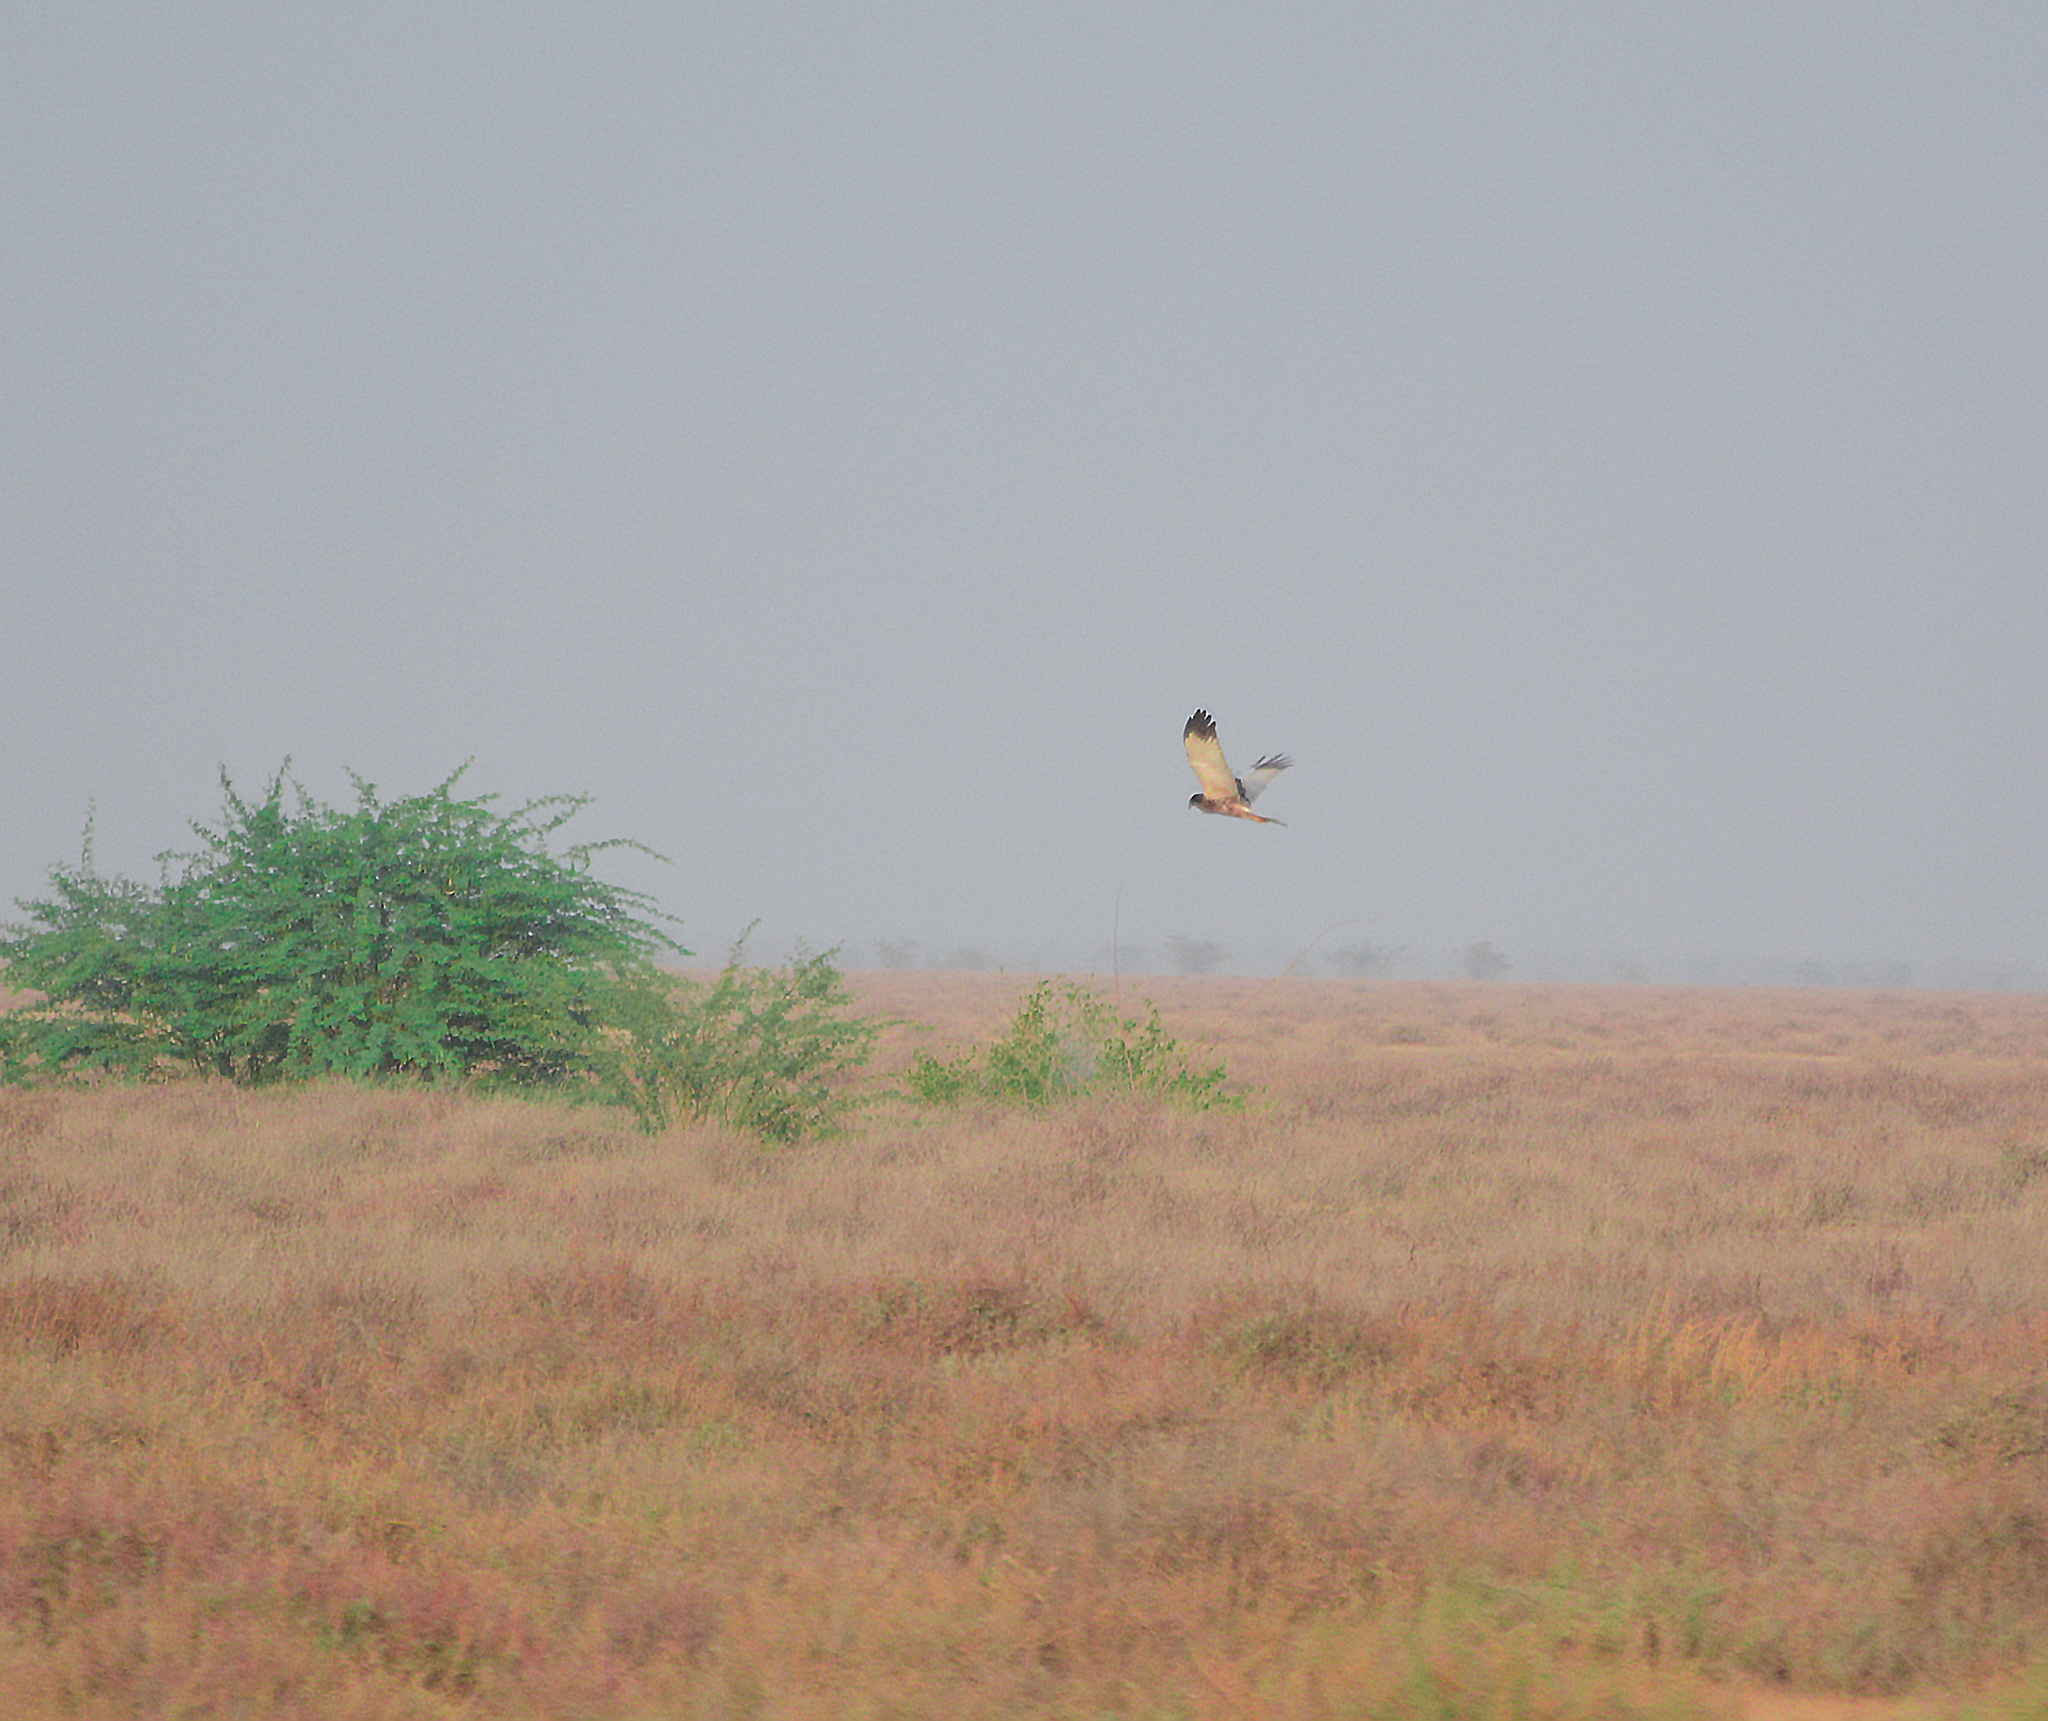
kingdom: Animalia
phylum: Chordata
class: Aves
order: Accipitriformes
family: Accipitridae
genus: Circus
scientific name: Circus melanoleucos
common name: Pied harrier
